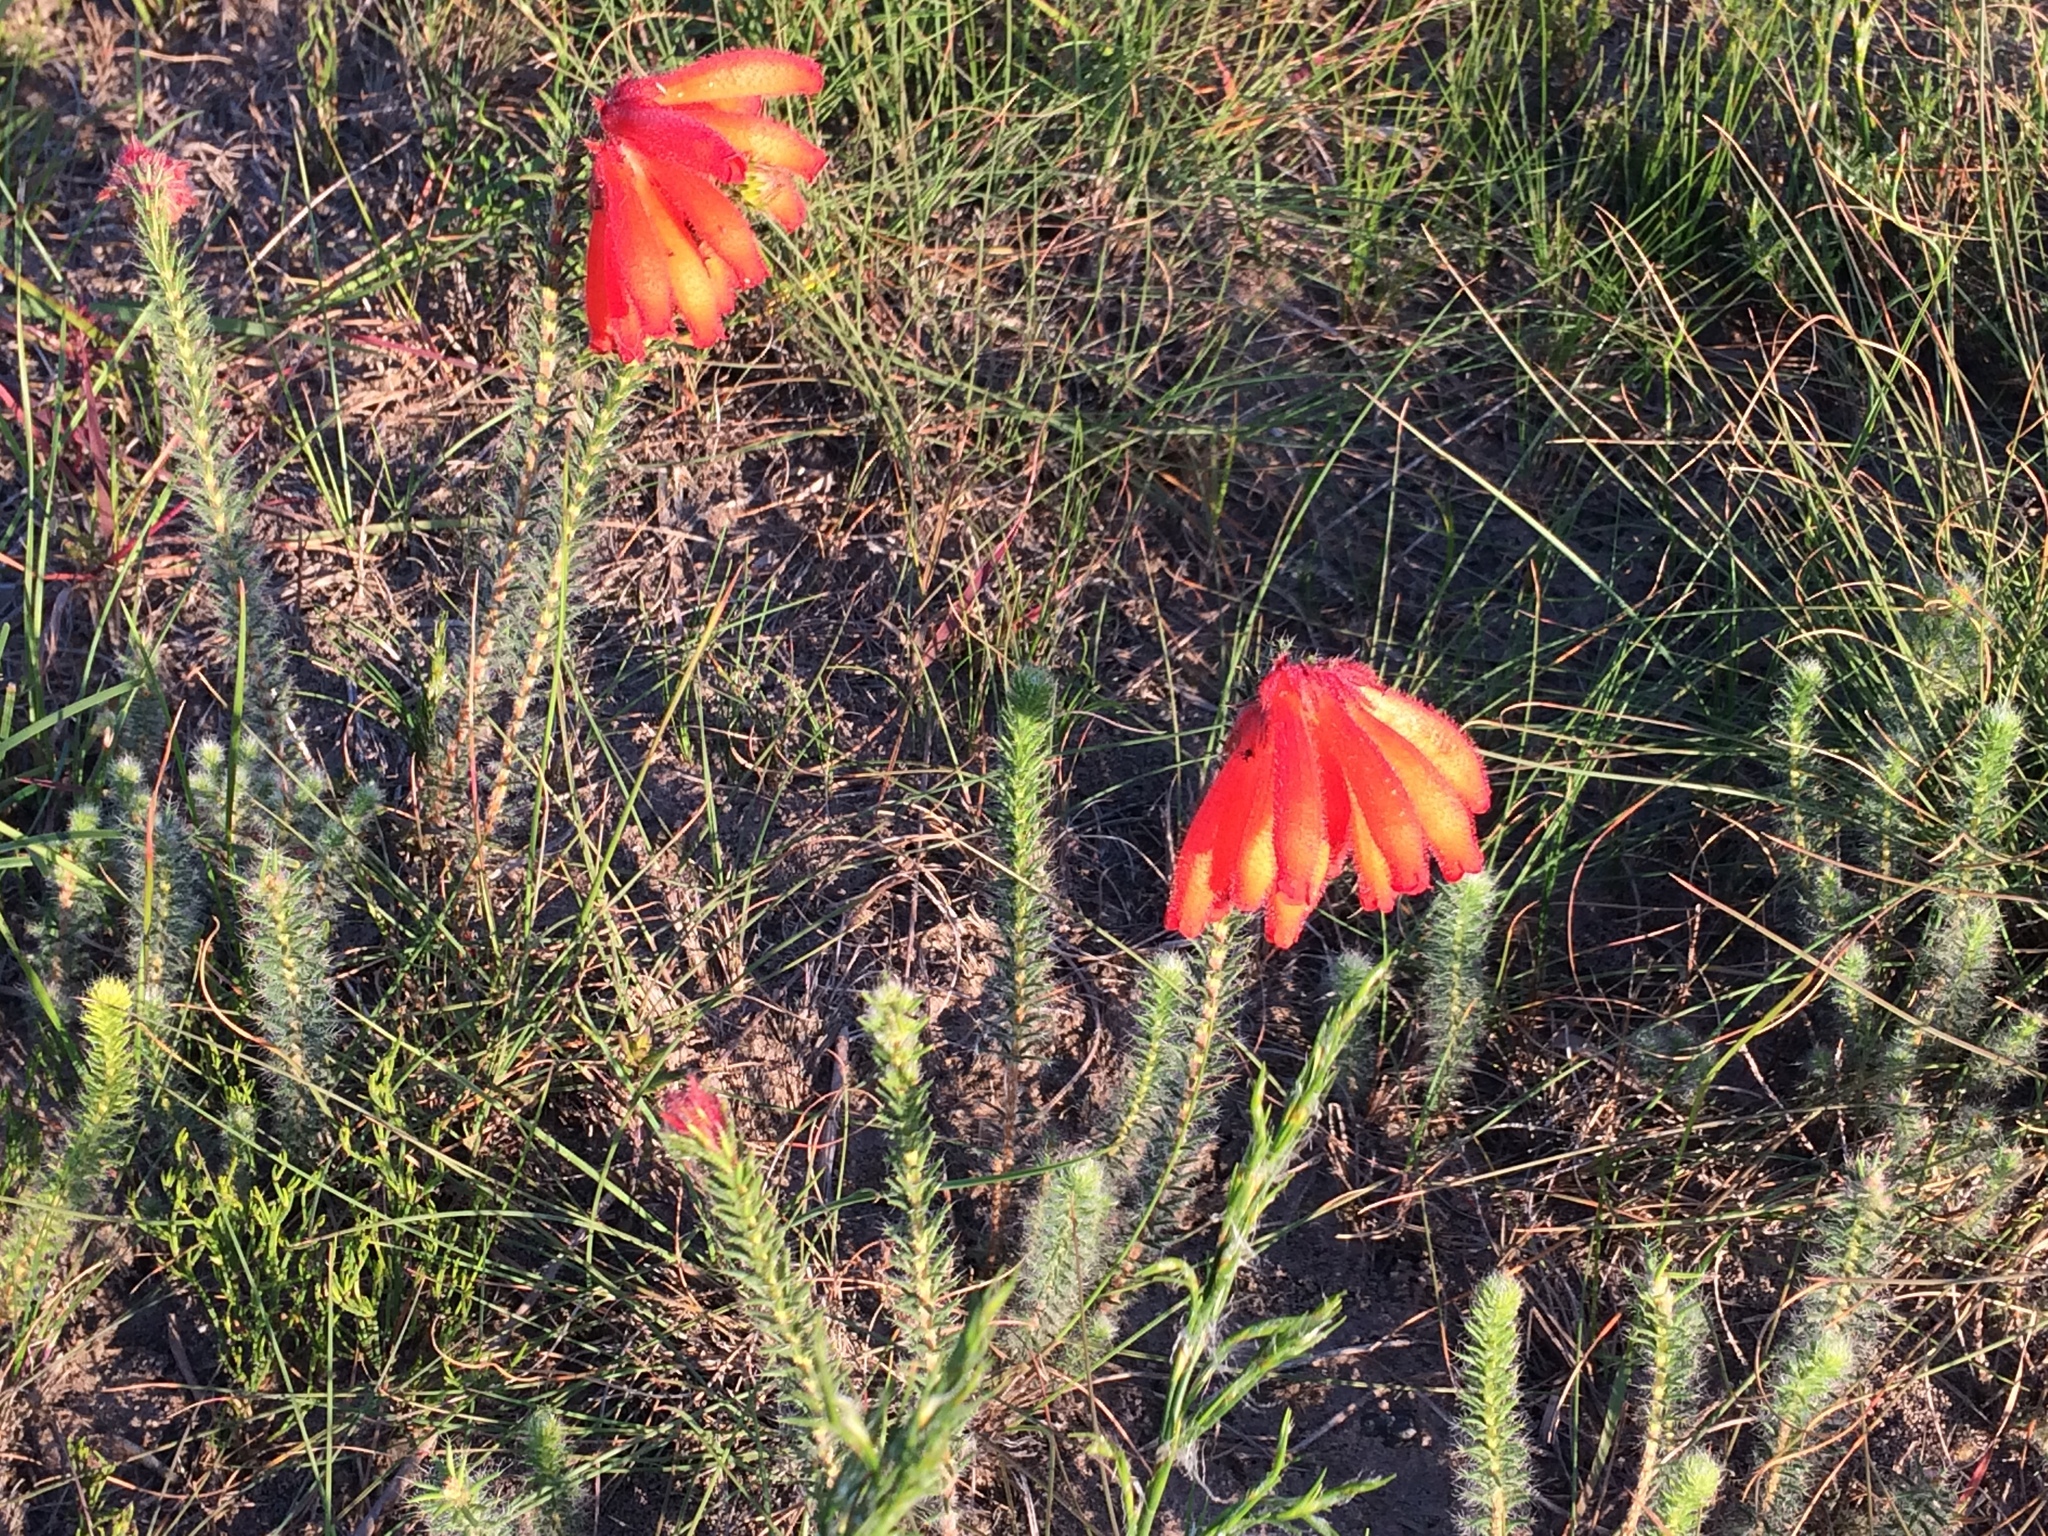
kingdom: Plantae
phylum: Tracheophyta
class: Magnoliopsida
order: Ericales
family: Ericaceae
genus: Erica
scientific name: Erica cerinthoides
